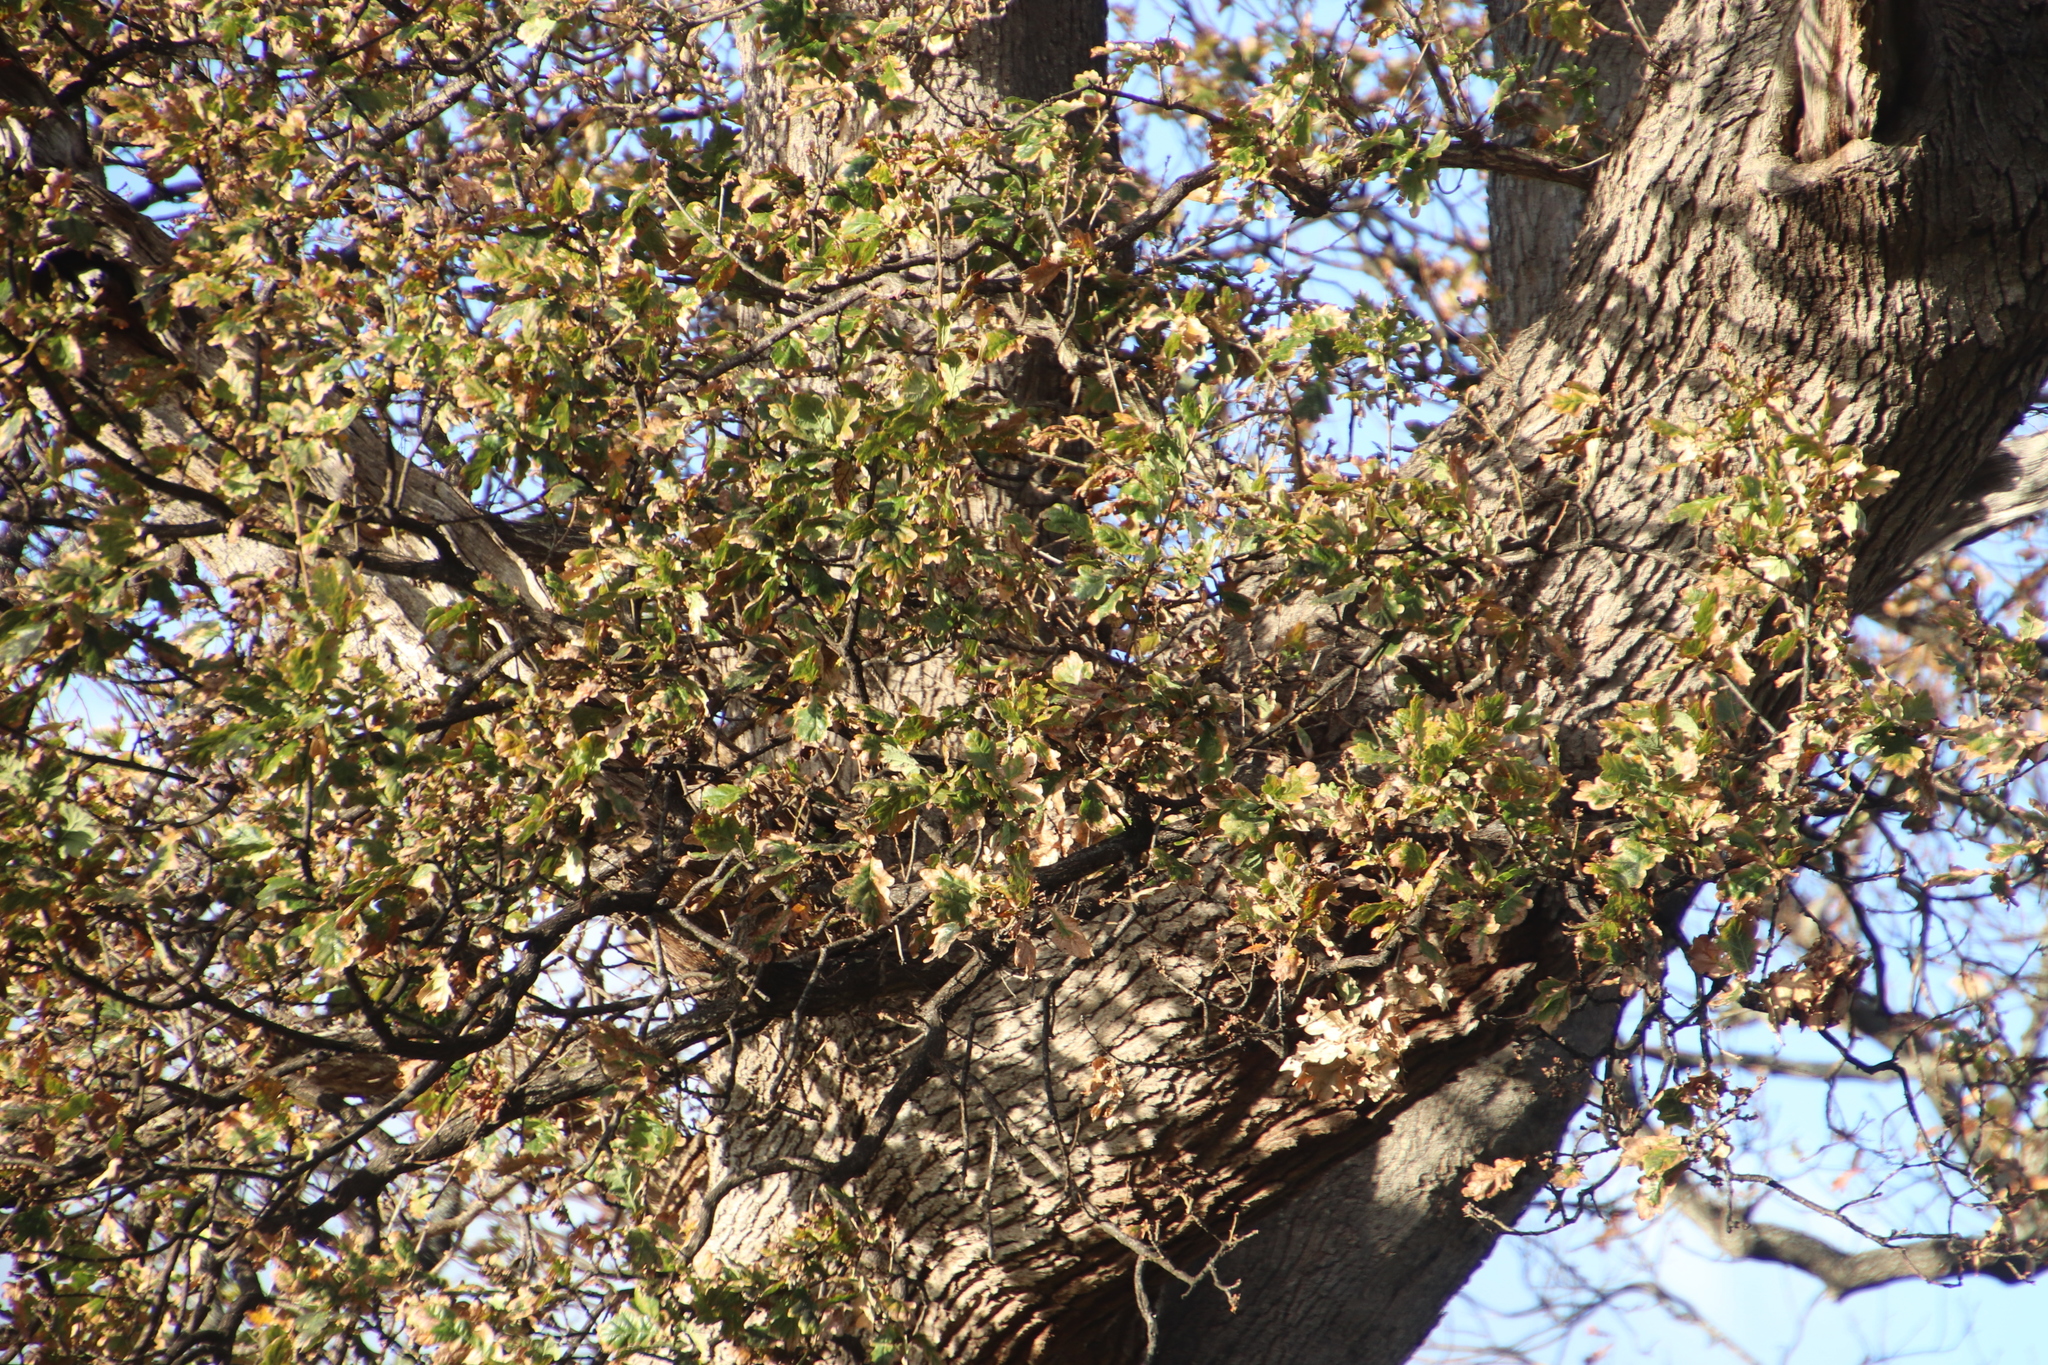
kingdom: Plantae
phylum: Tracheophyta
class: Magnoliopsida
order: Fagales
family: Fagaceae
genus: Quercus
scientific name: Quercus robur
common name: Pedunculate oak
